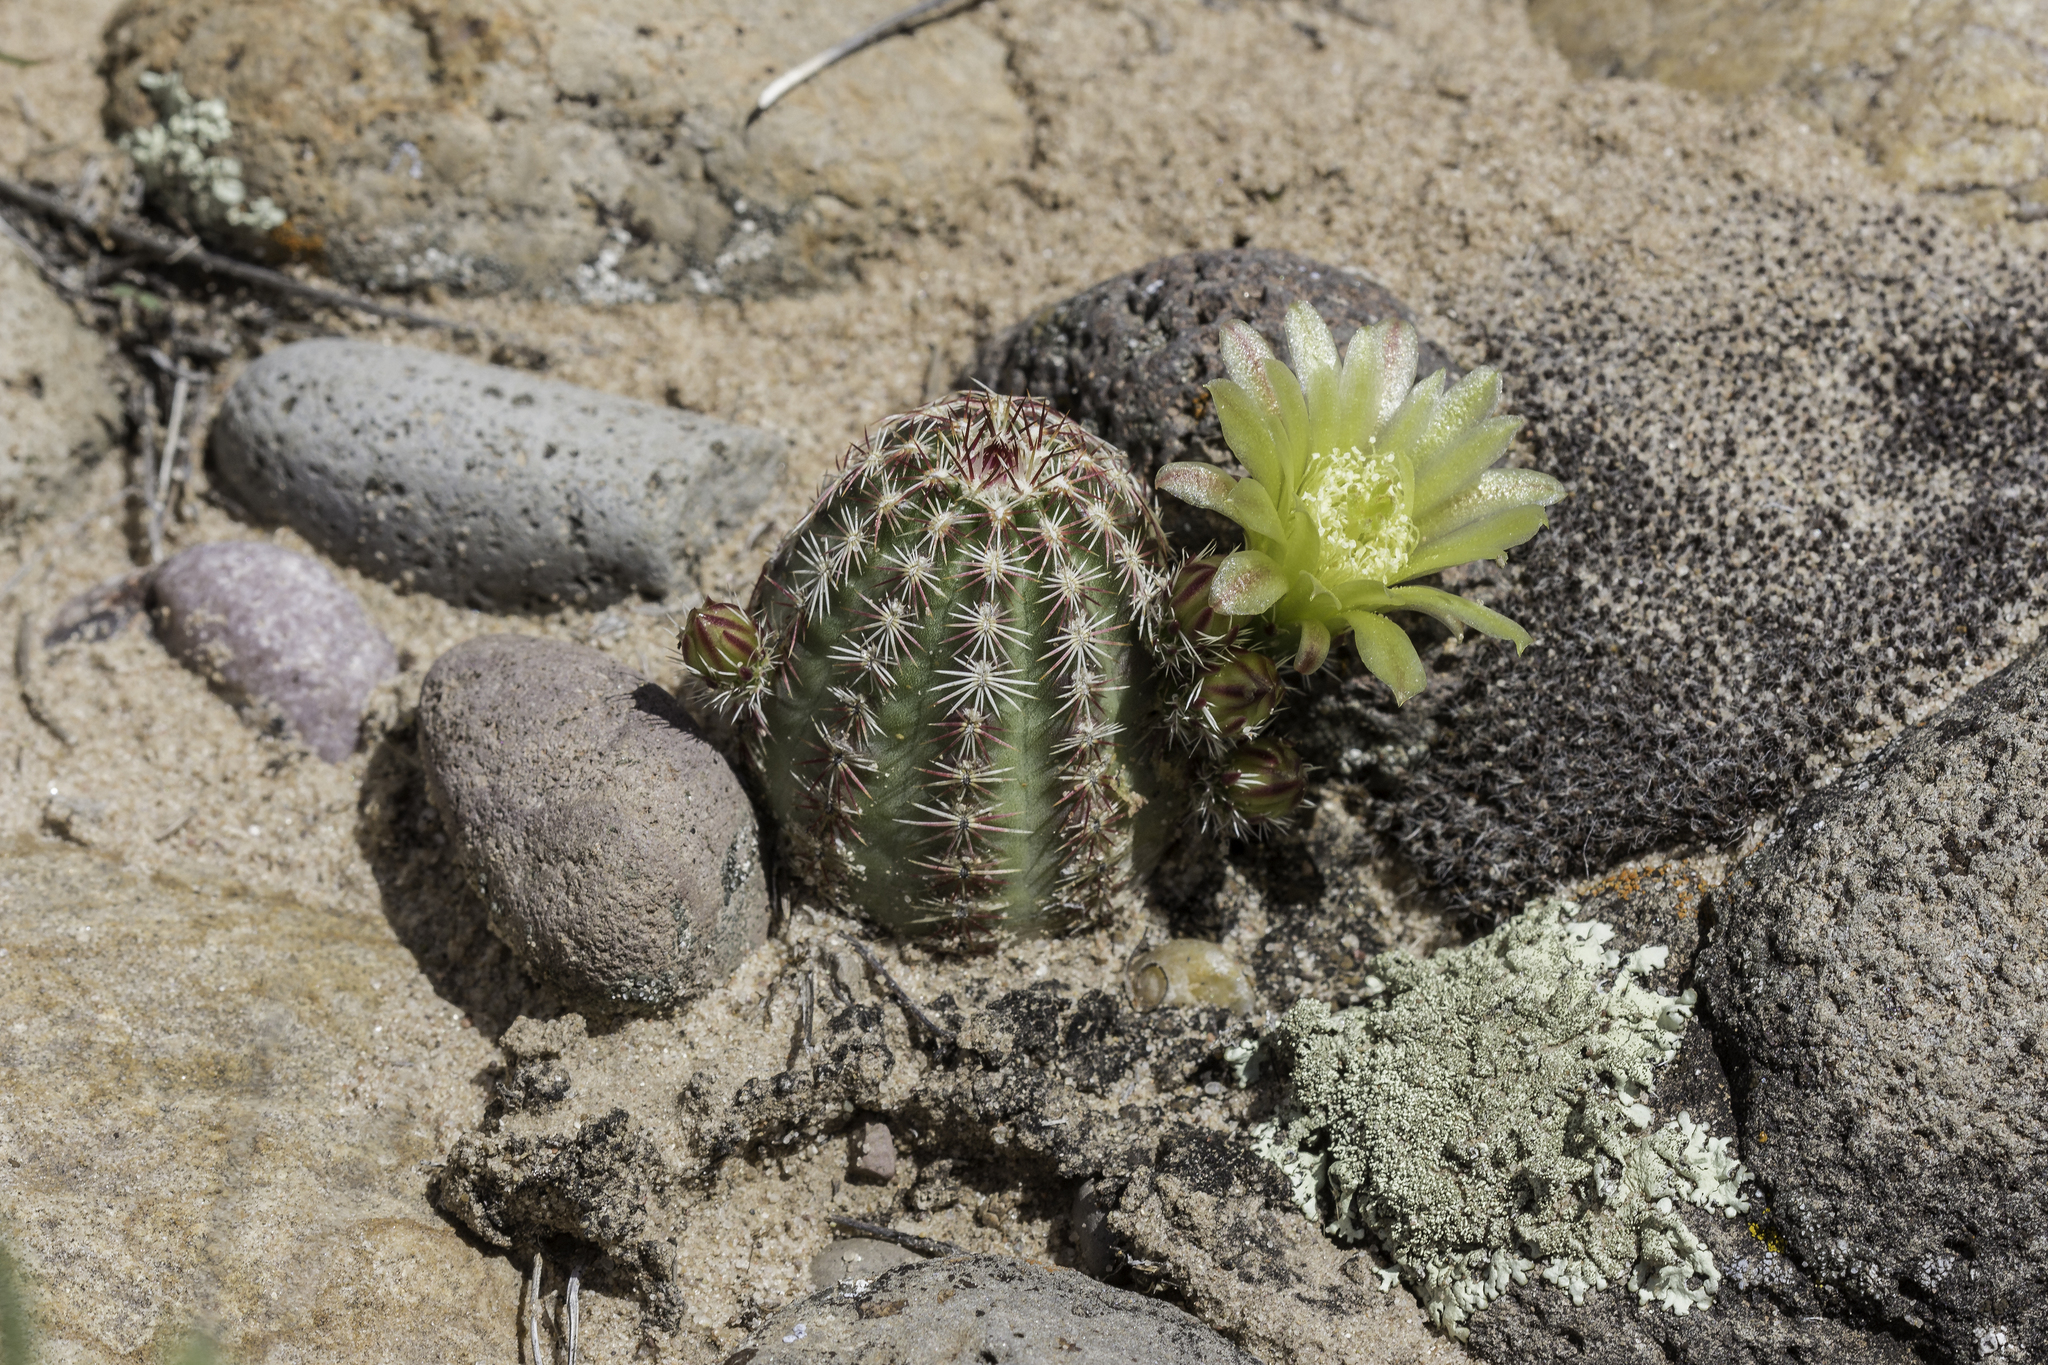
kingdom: Plantae
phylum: Tracheophyta
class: Magnoliopsida
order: Caryophyllales
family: Cactaceae
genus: Echinocereus
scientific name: Echinocereus viridiflorus
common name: Nylon hedgehog cactus
